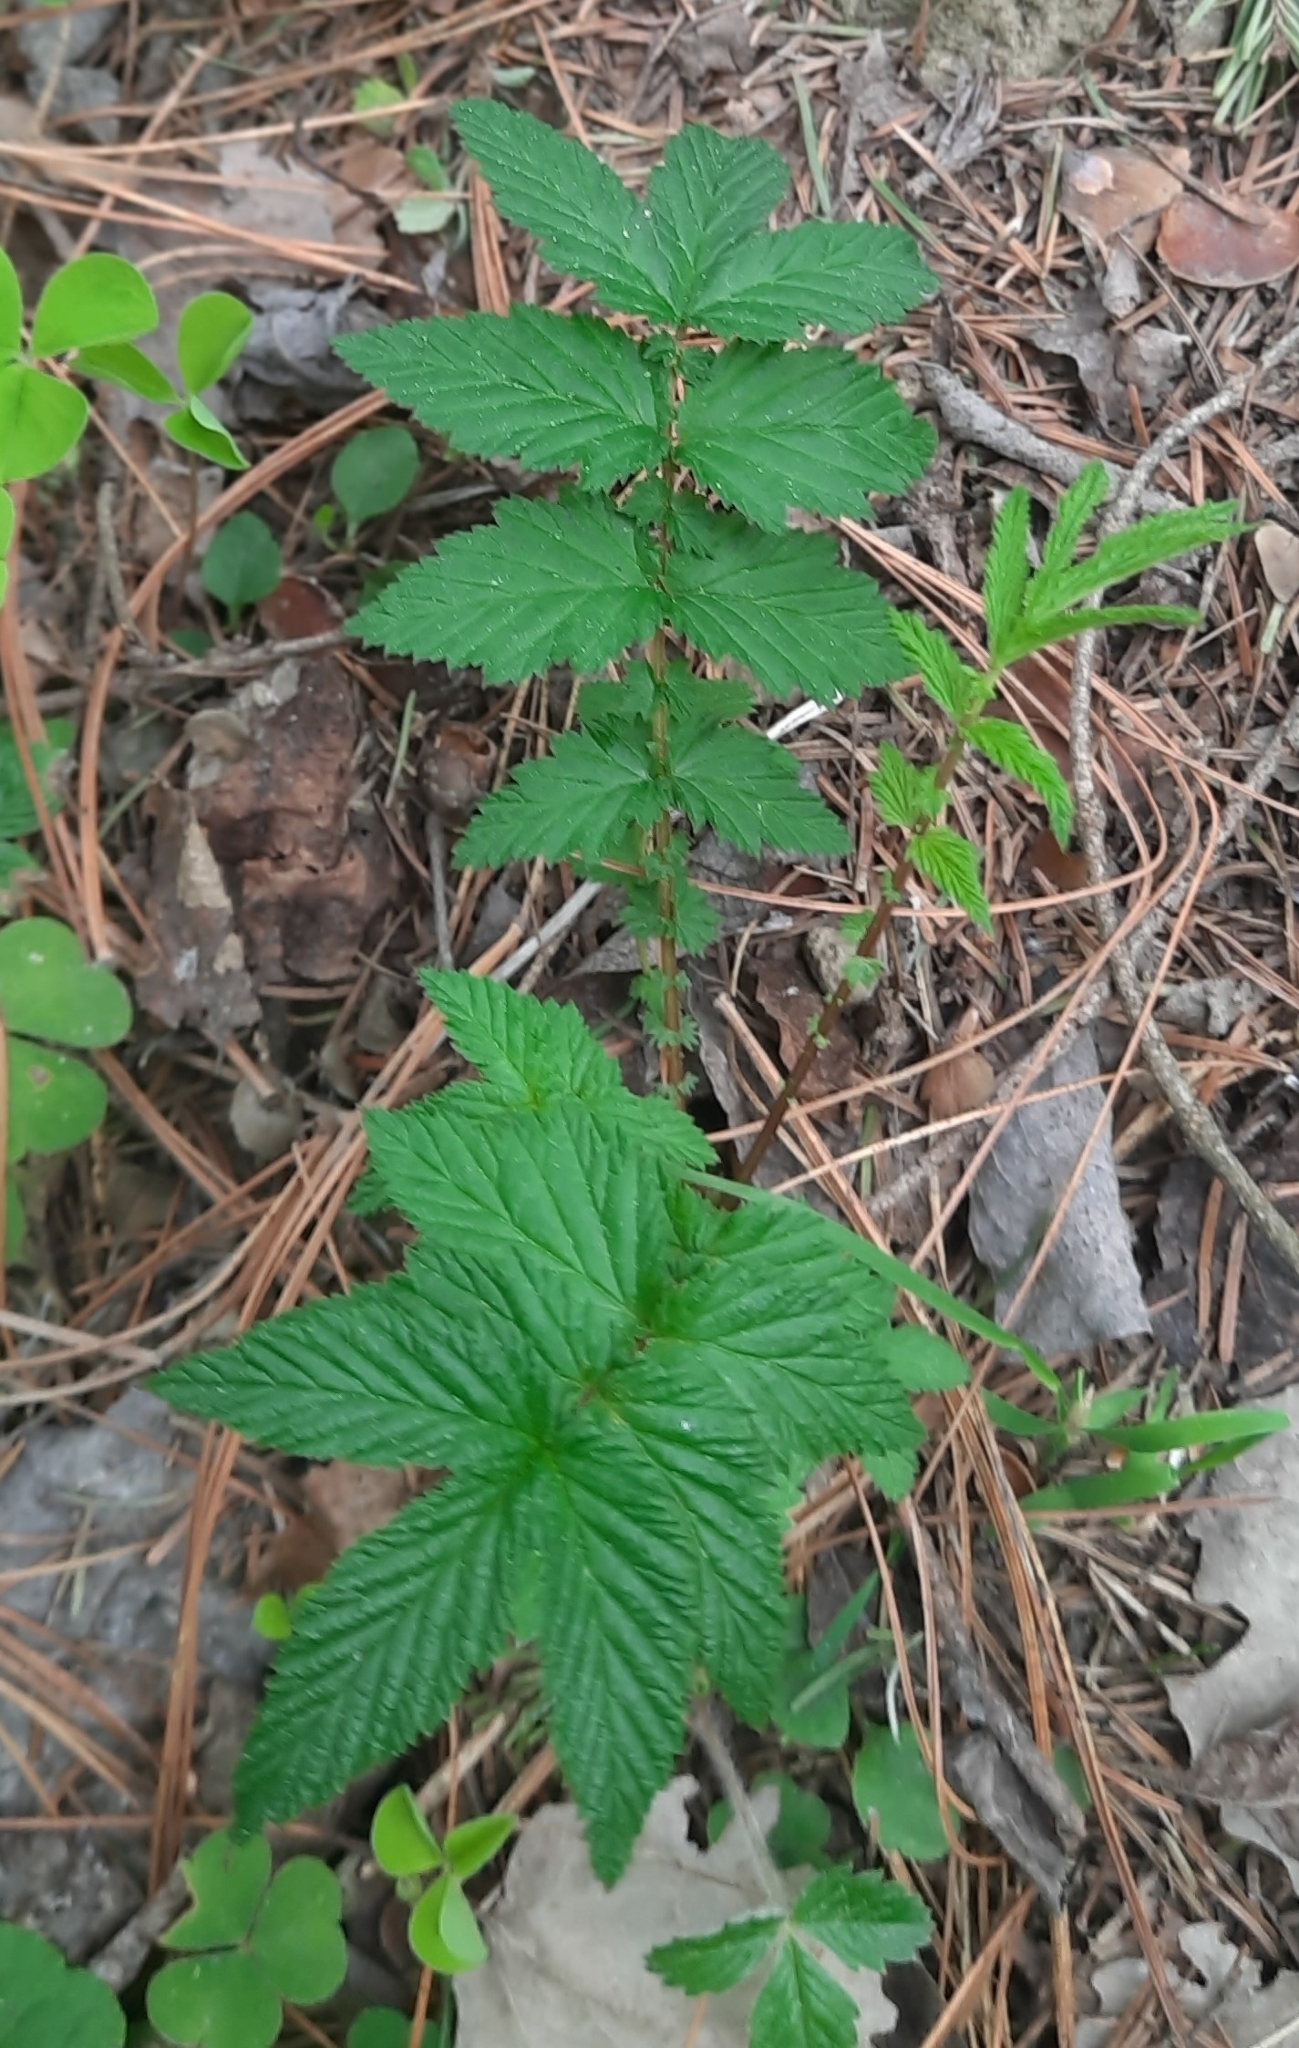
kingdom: Plantae
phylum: Tracheophyta
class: Magnoliopsida
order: Rosales
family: Rosaceae
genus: Filipendula
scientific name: Filipendula ulmaria
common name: Meadowsweet
